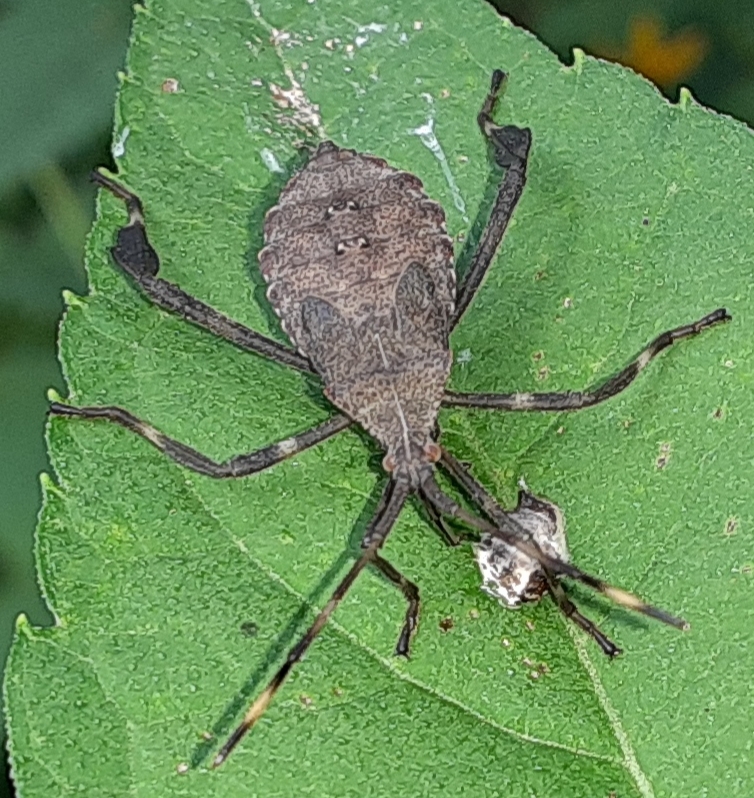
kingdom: Animalia
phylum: Arthropoda
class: Insecta
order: Hemiptera
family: Coreidae
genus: Acanthocephala
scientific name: Acanthocephala terminalis
